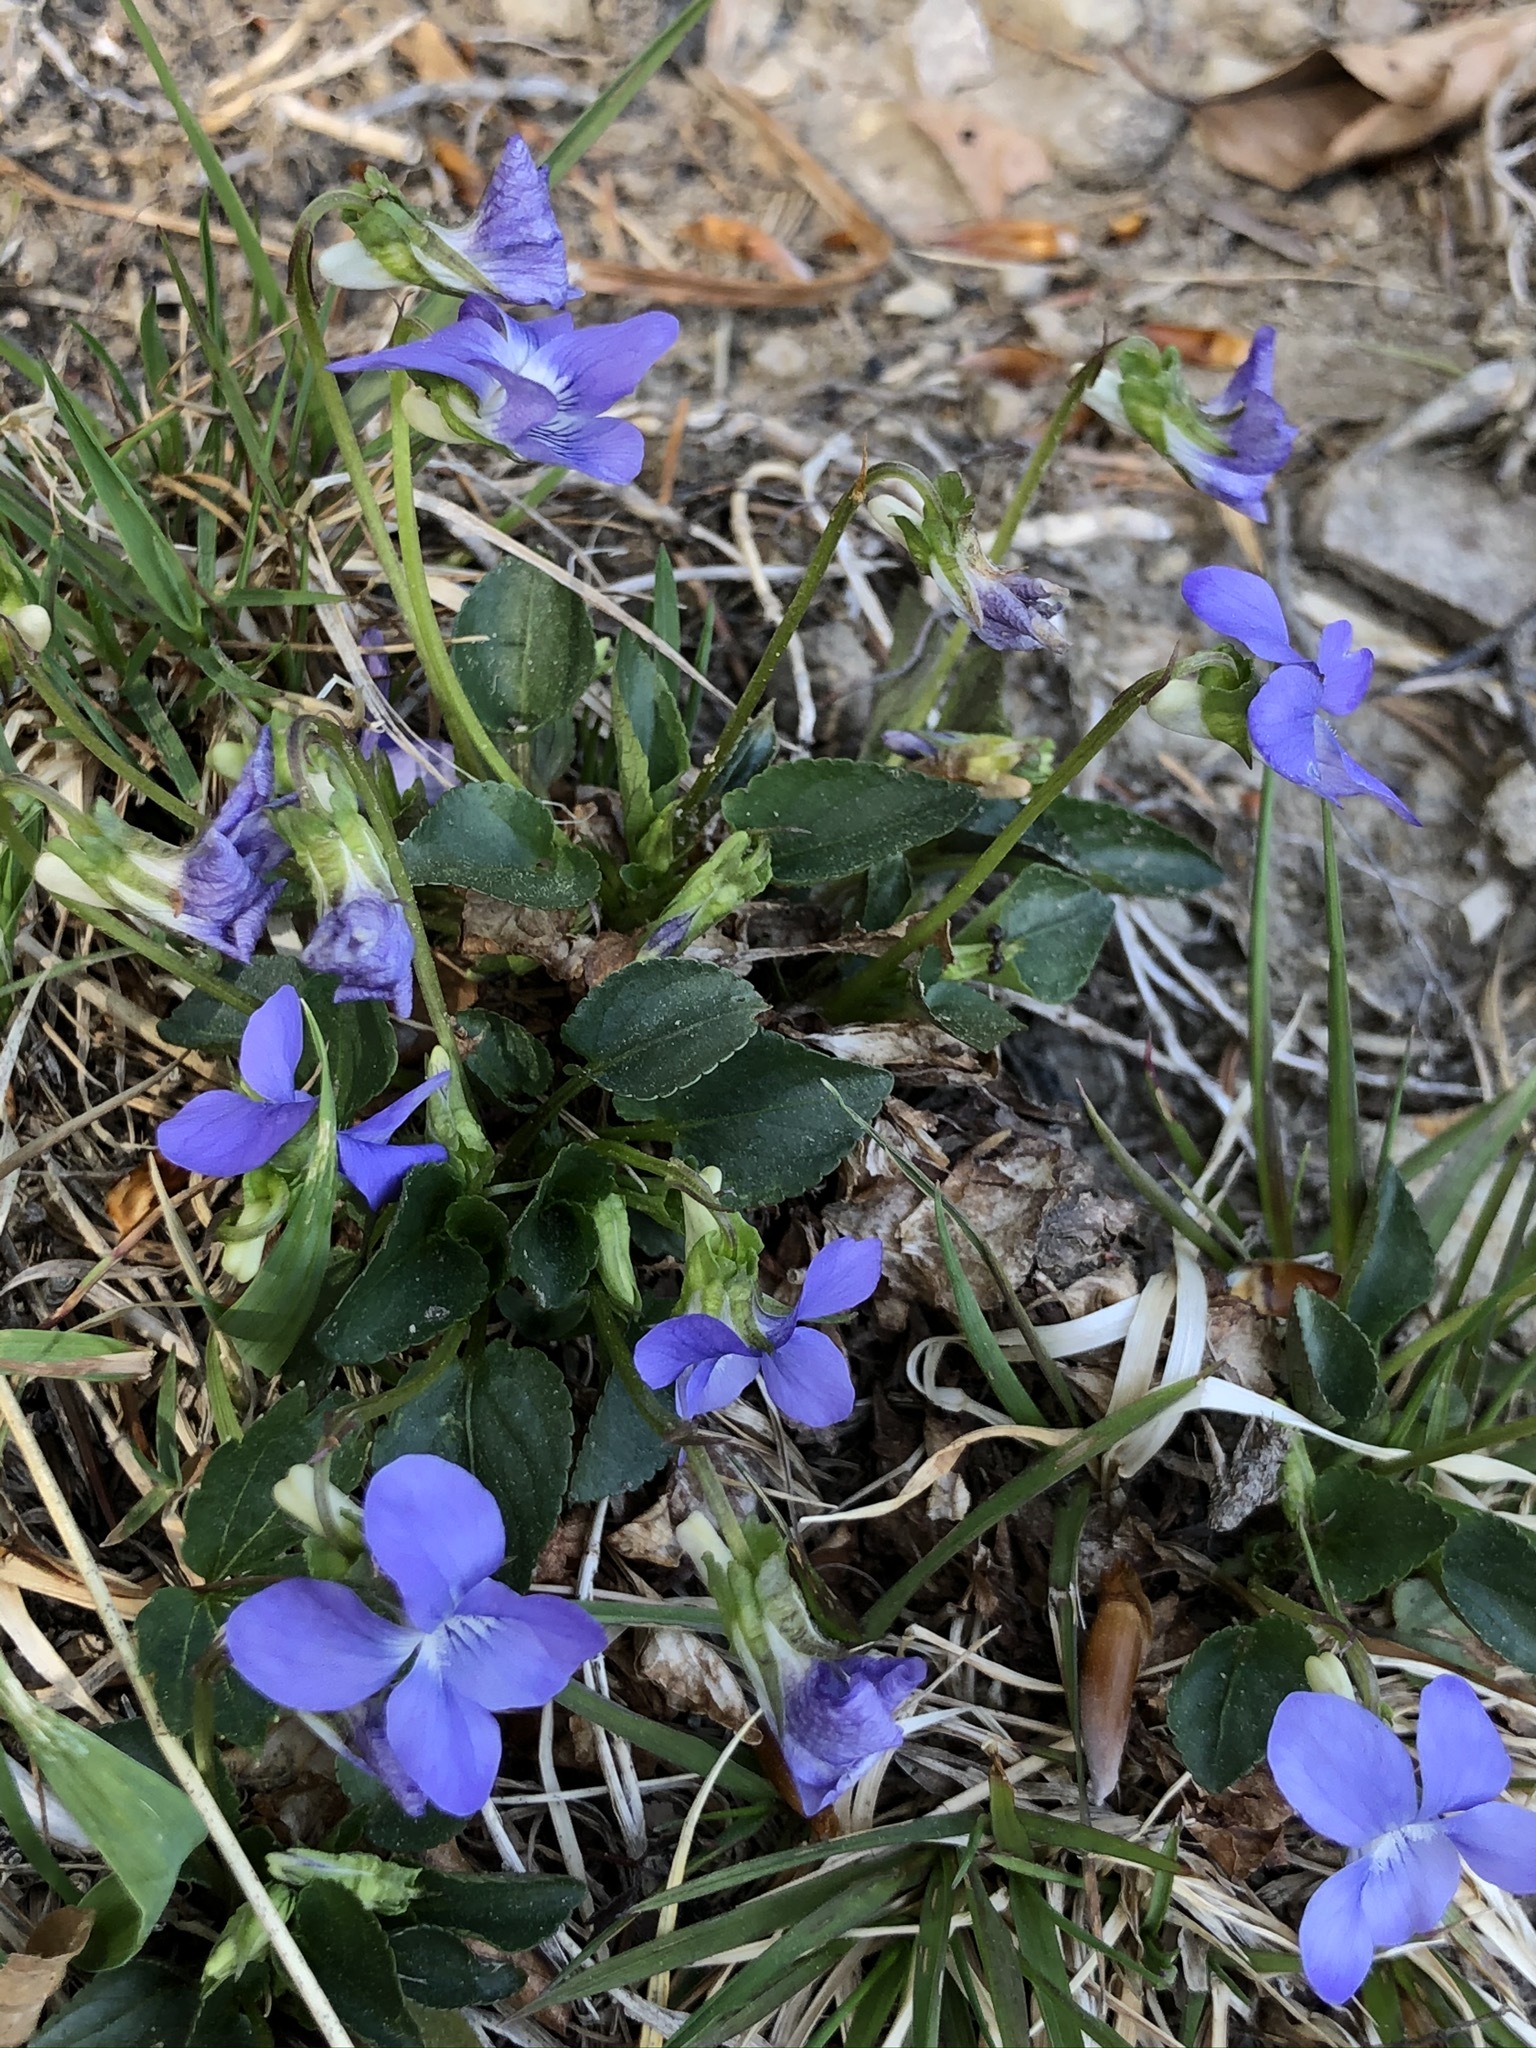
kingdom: Plantae
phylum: Tracheophyta
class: Magnoliopsida
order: Malpighiales
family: Violaceae
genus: Viola
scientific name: Viola riviniana
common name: Common dog-violet
